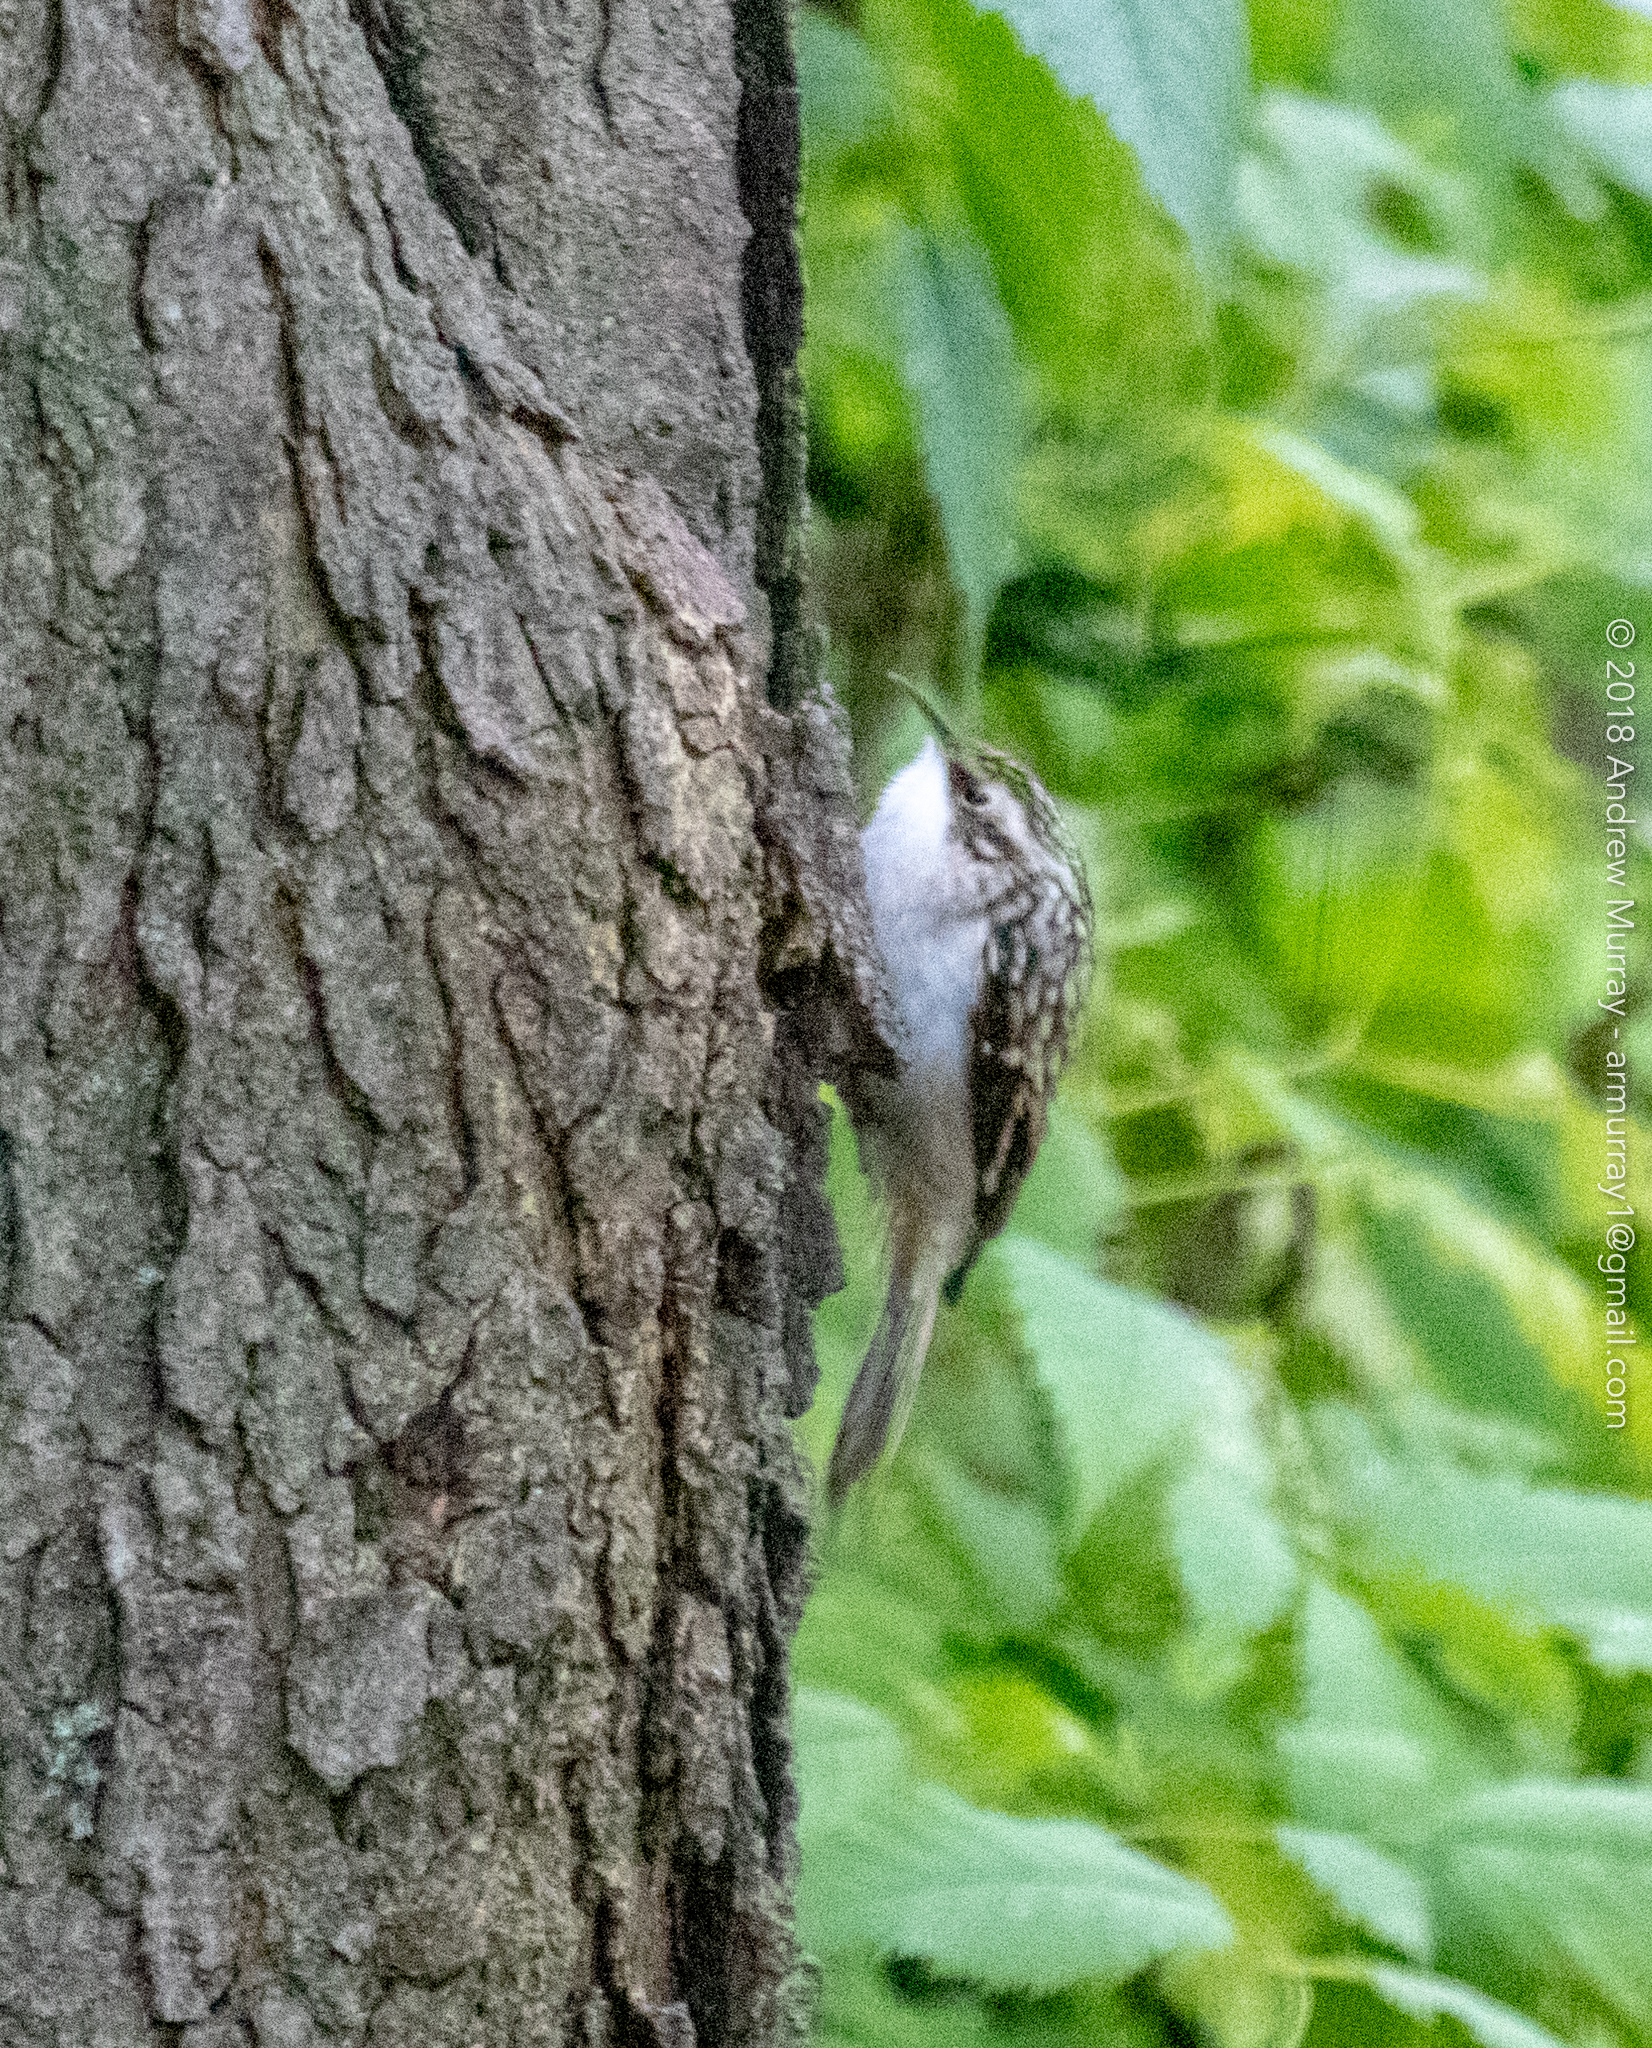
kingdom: Animalia
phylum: Chordata
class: Aves
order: Passeriformes
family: Certhiidae
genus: Certhia
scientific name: Certhia americana
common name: Brown creeper
